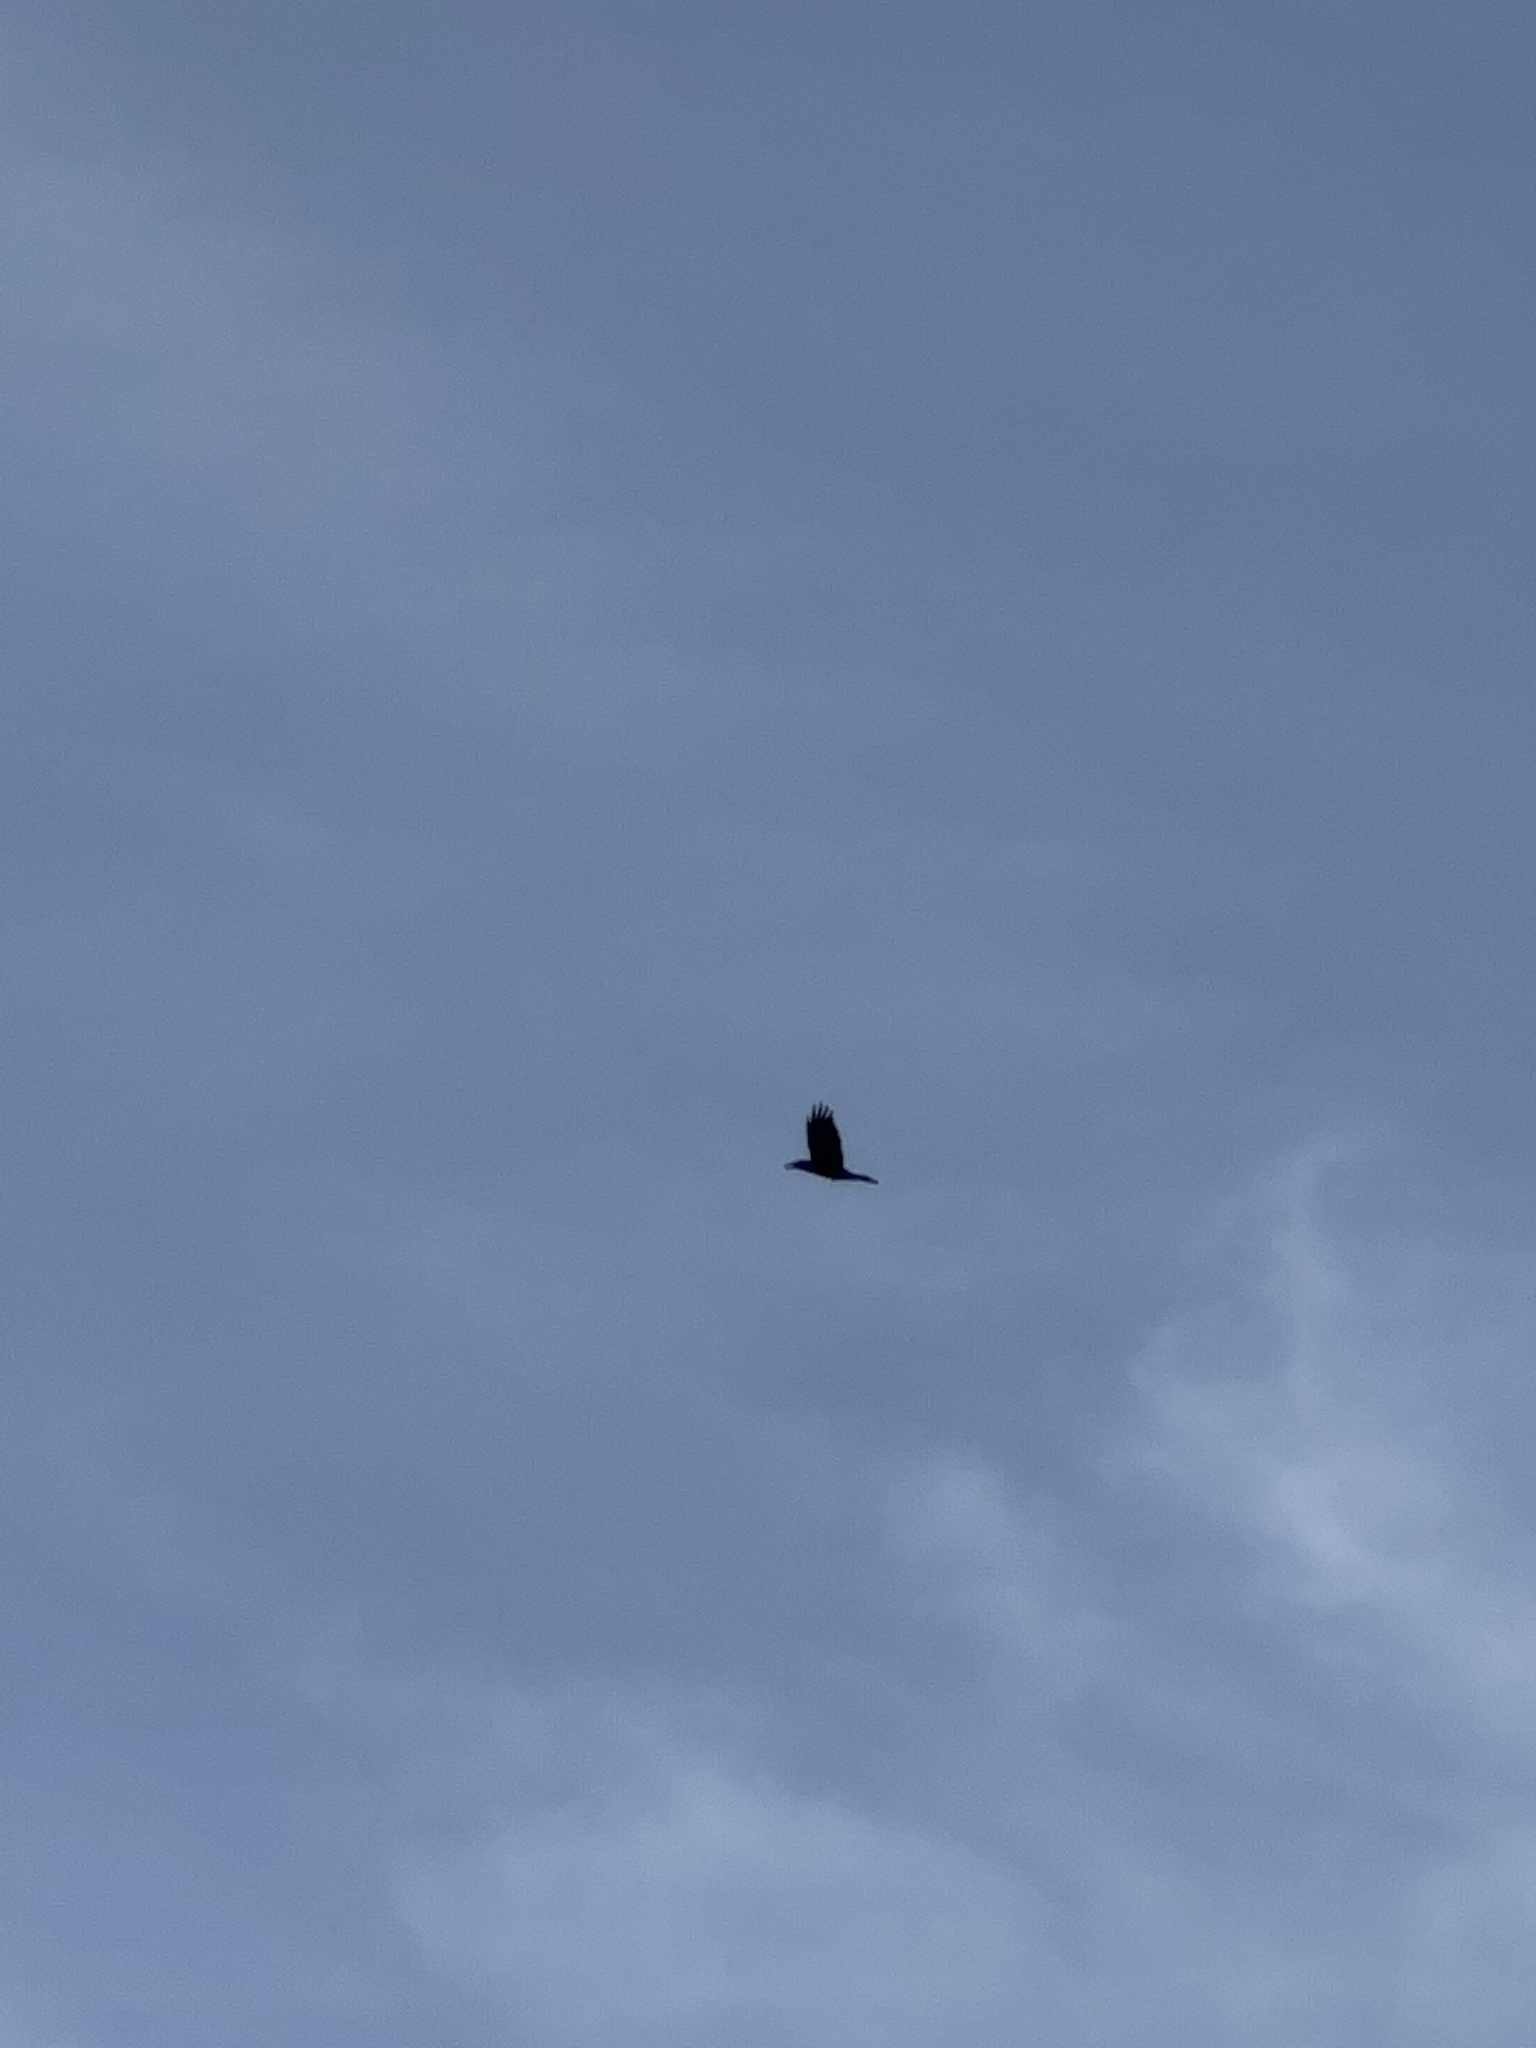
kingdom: Animalia
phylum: Chordata
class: Aves
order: Passeriformes
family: Corvidae
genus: Corvus
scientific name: Corvus corax
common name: Common raven
